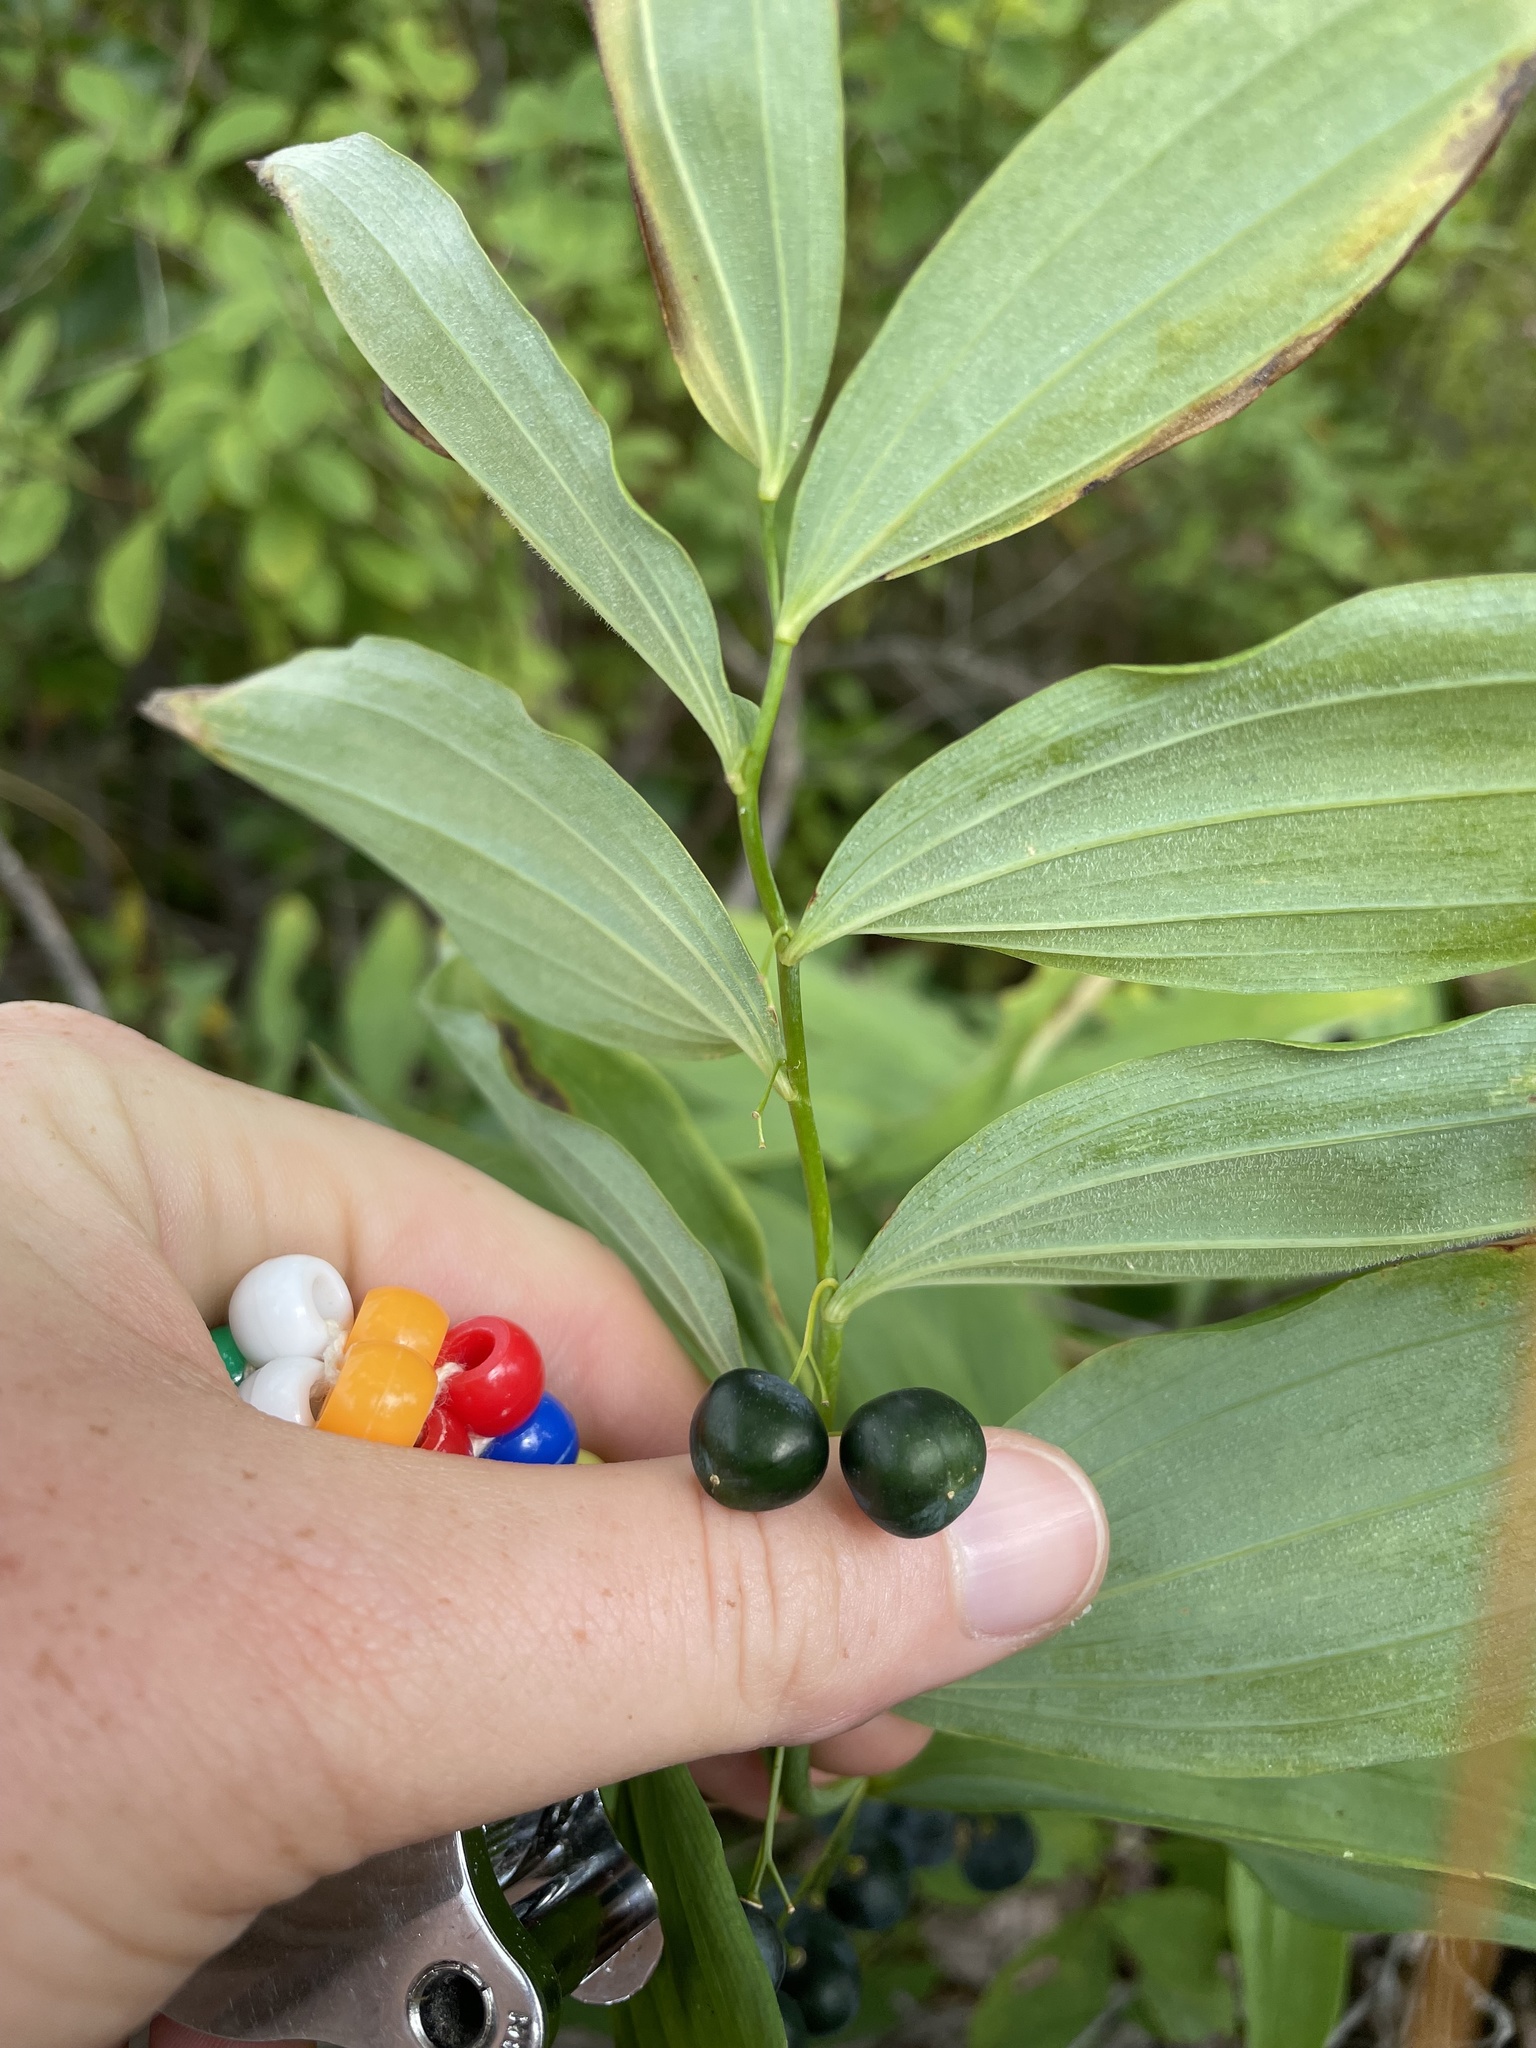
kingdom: Plantae
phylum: Tracheophyta
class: Liliopsida
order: Asparagales
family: Asparagaceae
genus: Polygonatum
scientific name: Polygonatum pubescens
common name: Downy solomon's seal
